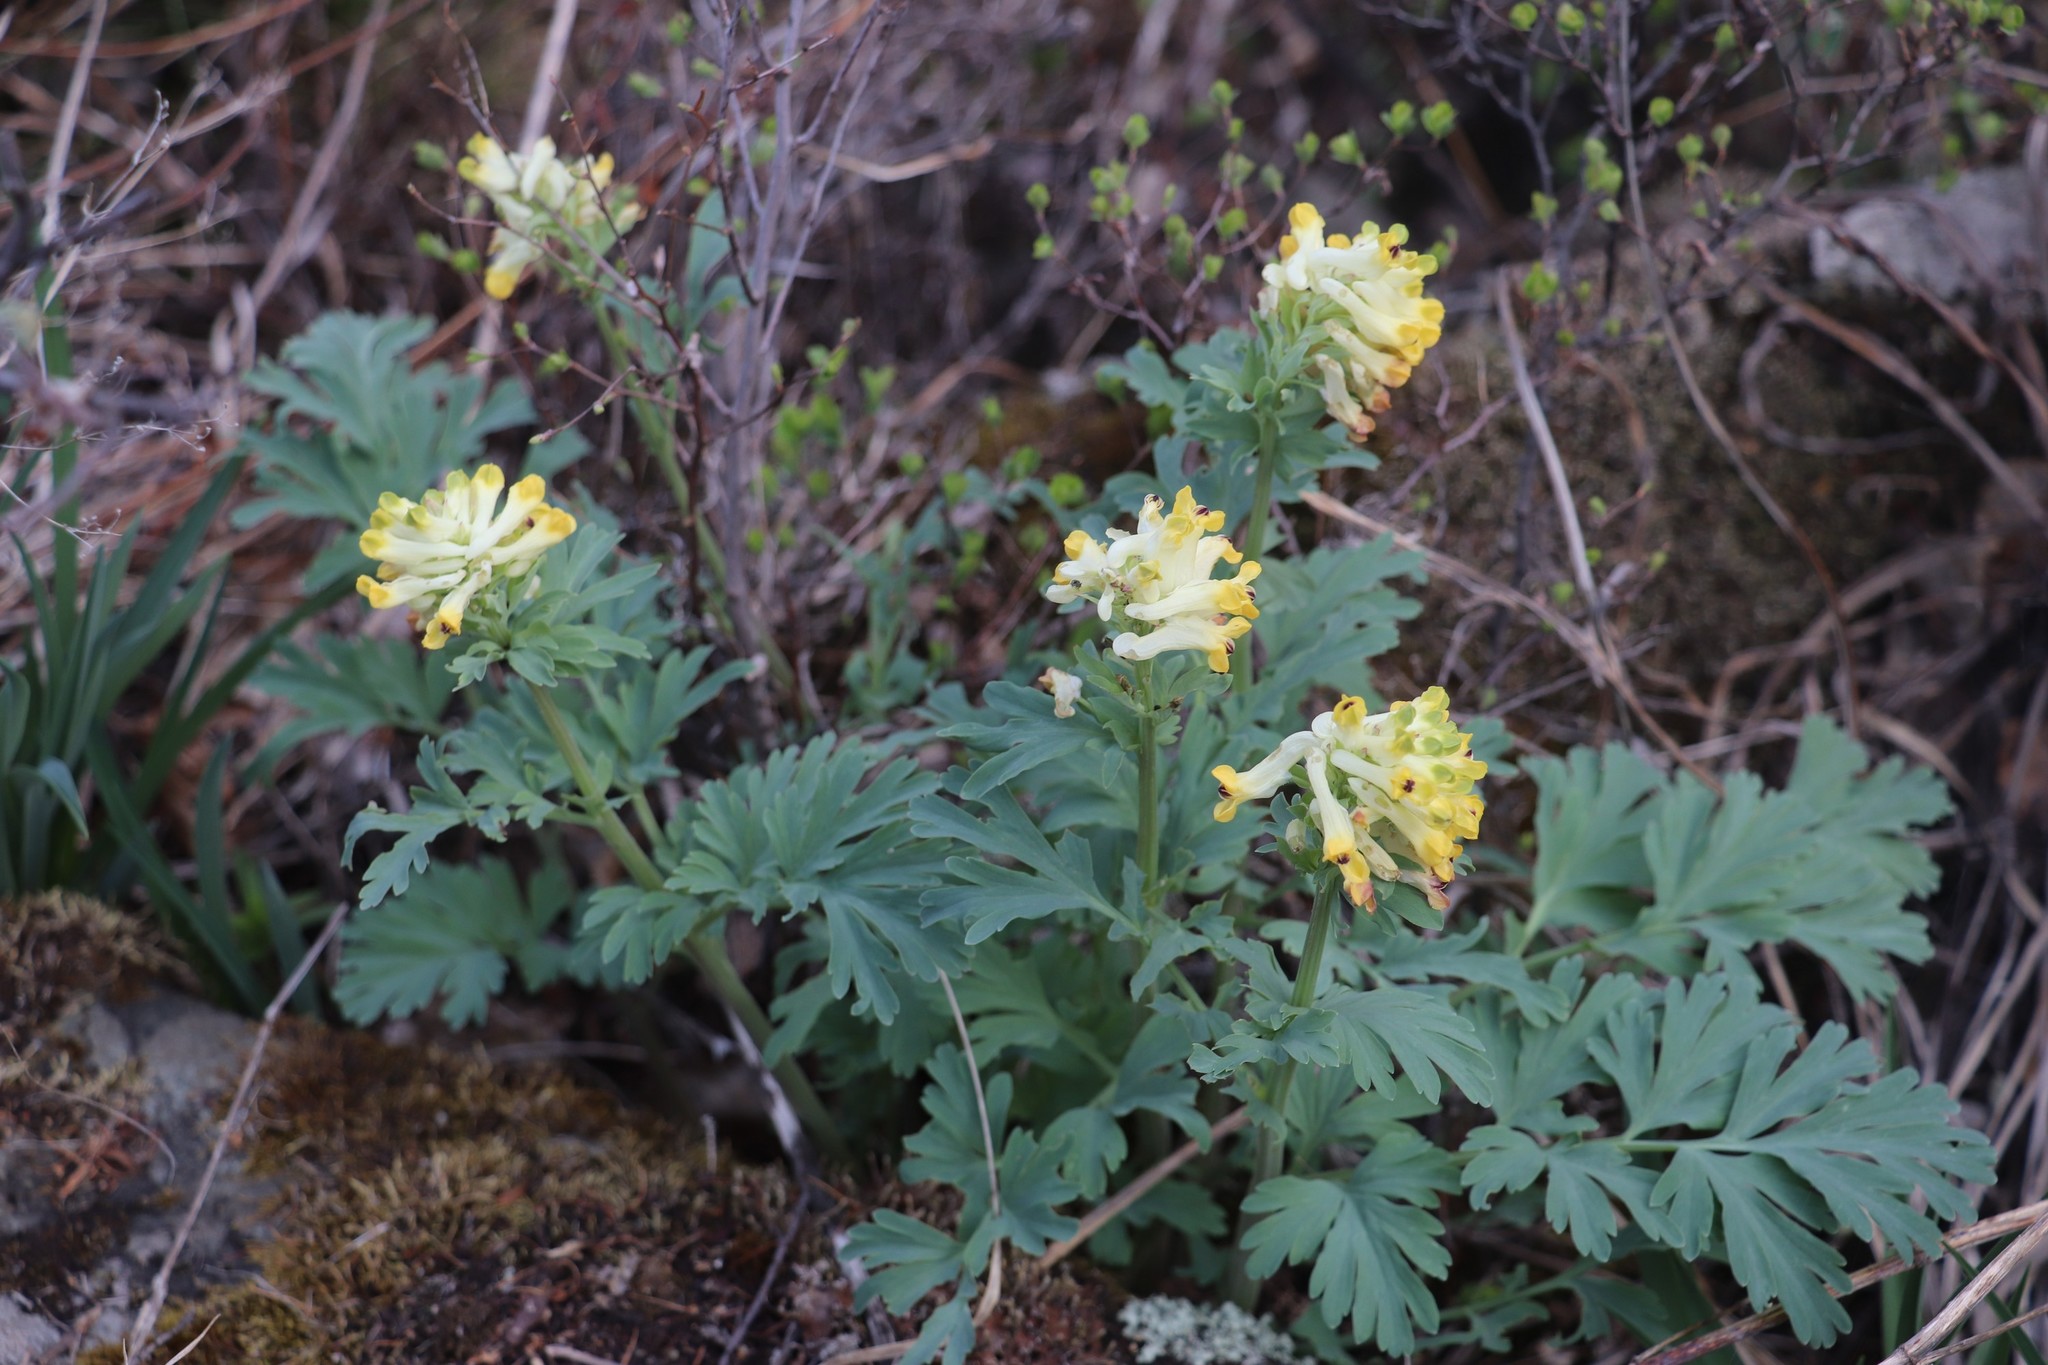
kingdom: Plantae
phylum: Tracheophyta
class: Magnoliopsida
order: Ranunculales
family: Papaveraceae
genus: Corydalis
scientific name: Corydalis nobilis
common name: Siberian corydalis
